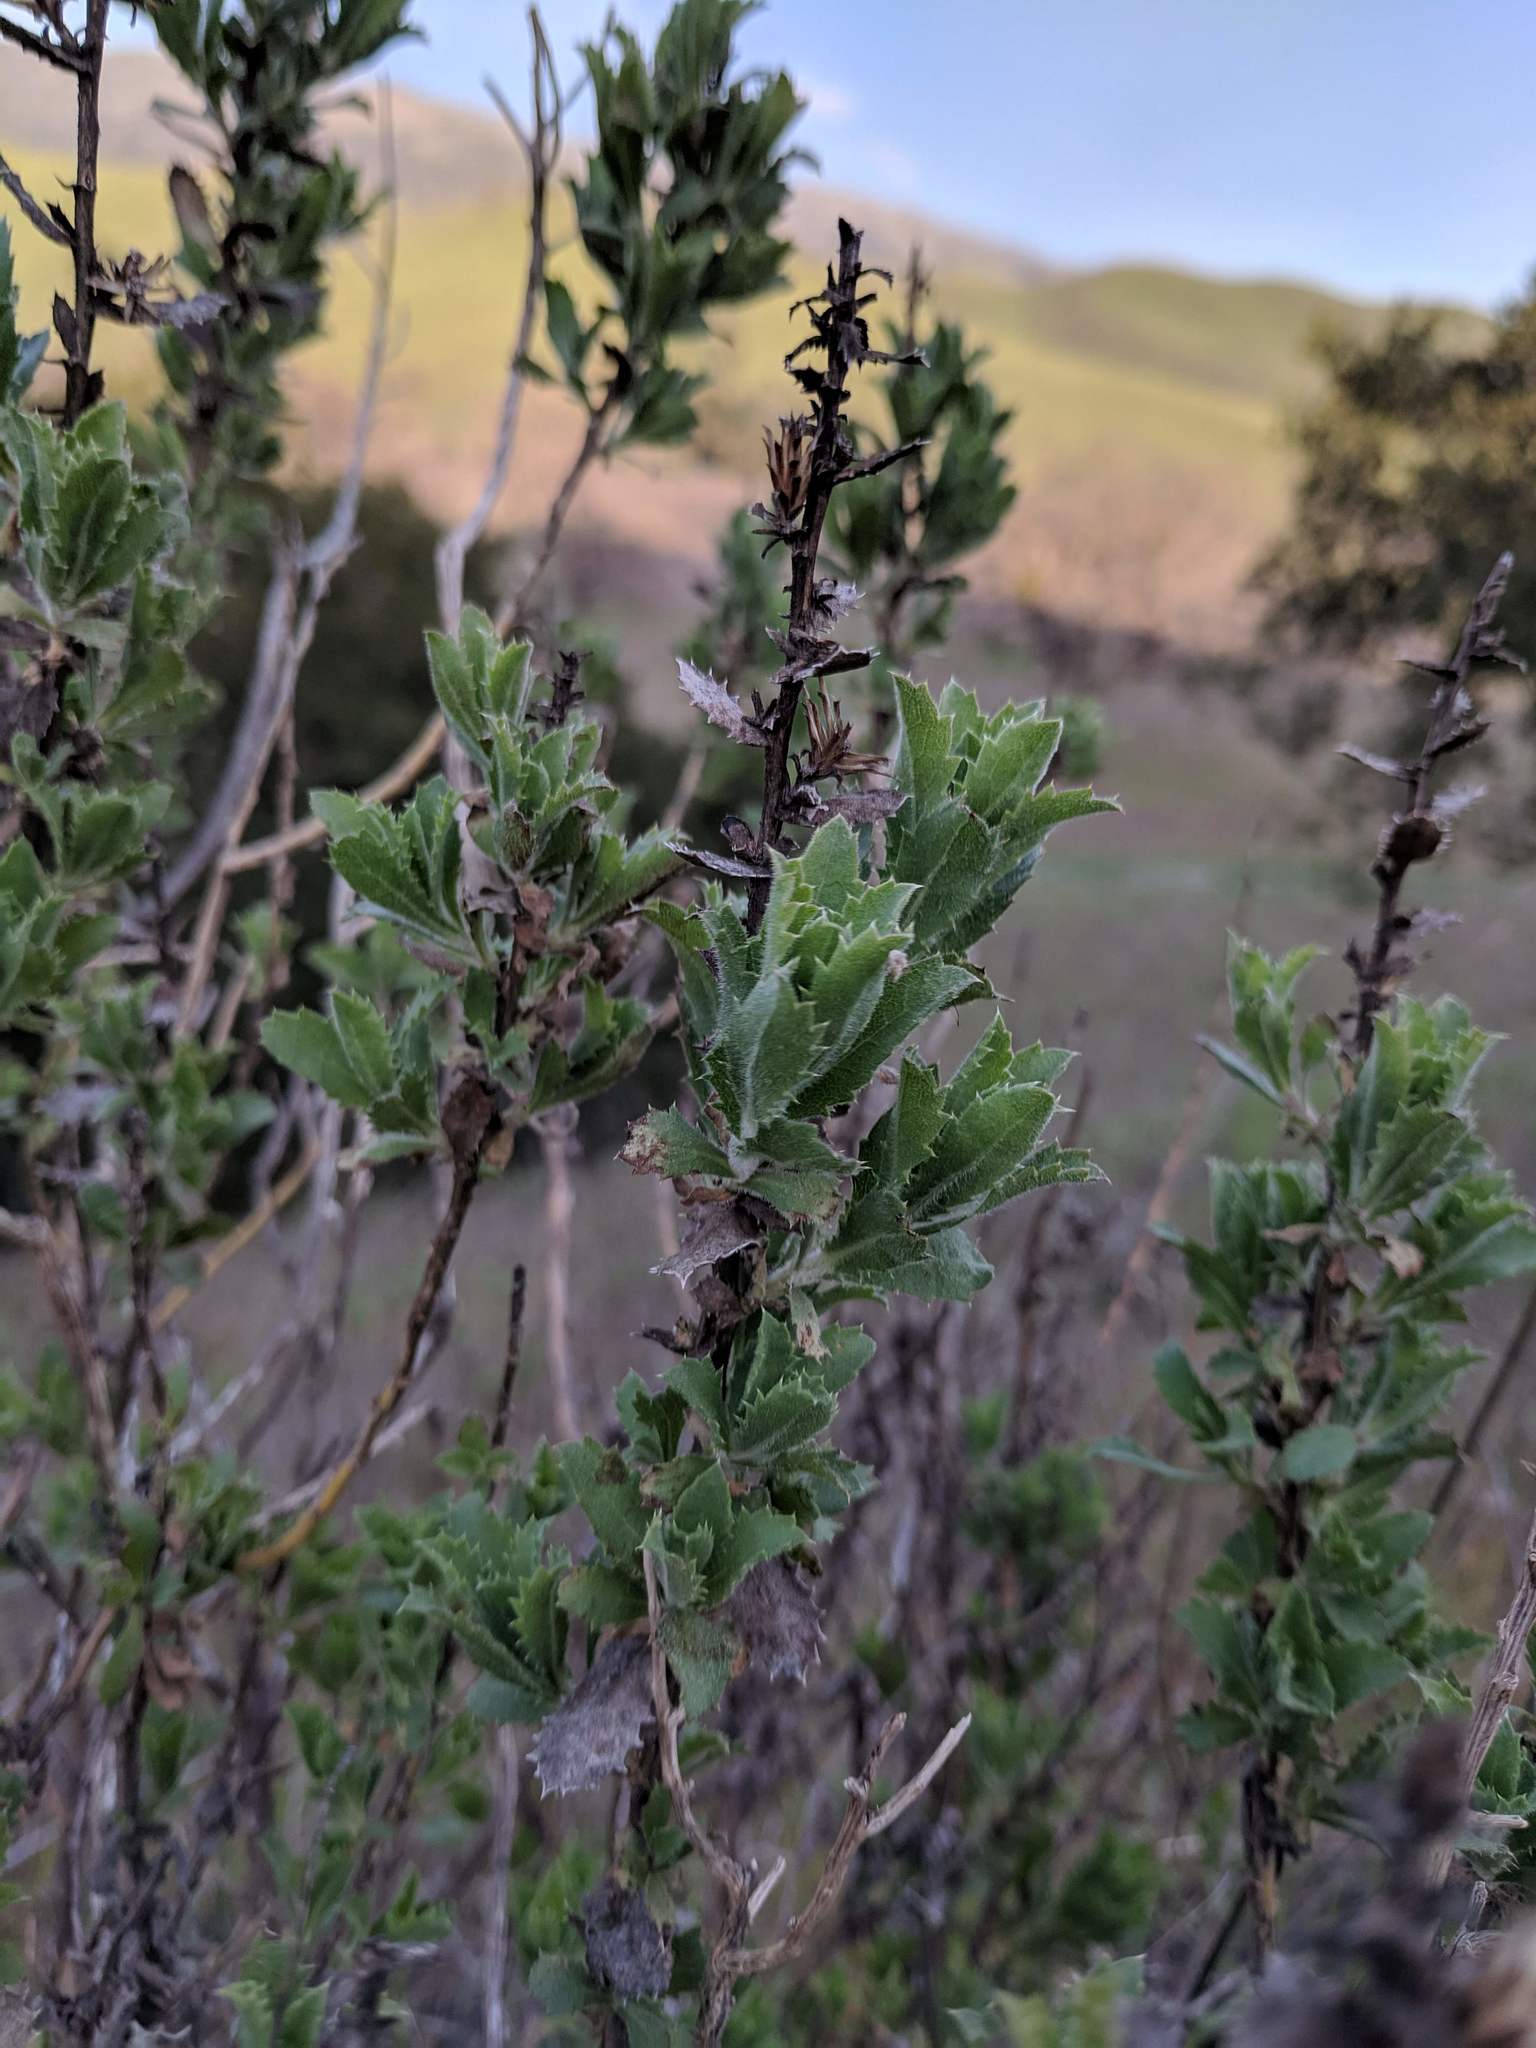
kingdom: Plantae
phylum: Tracheophyta
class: Magnoliopsida
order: Asterales
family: Asteraceae
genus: Hazardia
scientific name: Hazardia squarrosa
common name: Saw-tooth goldenbush
